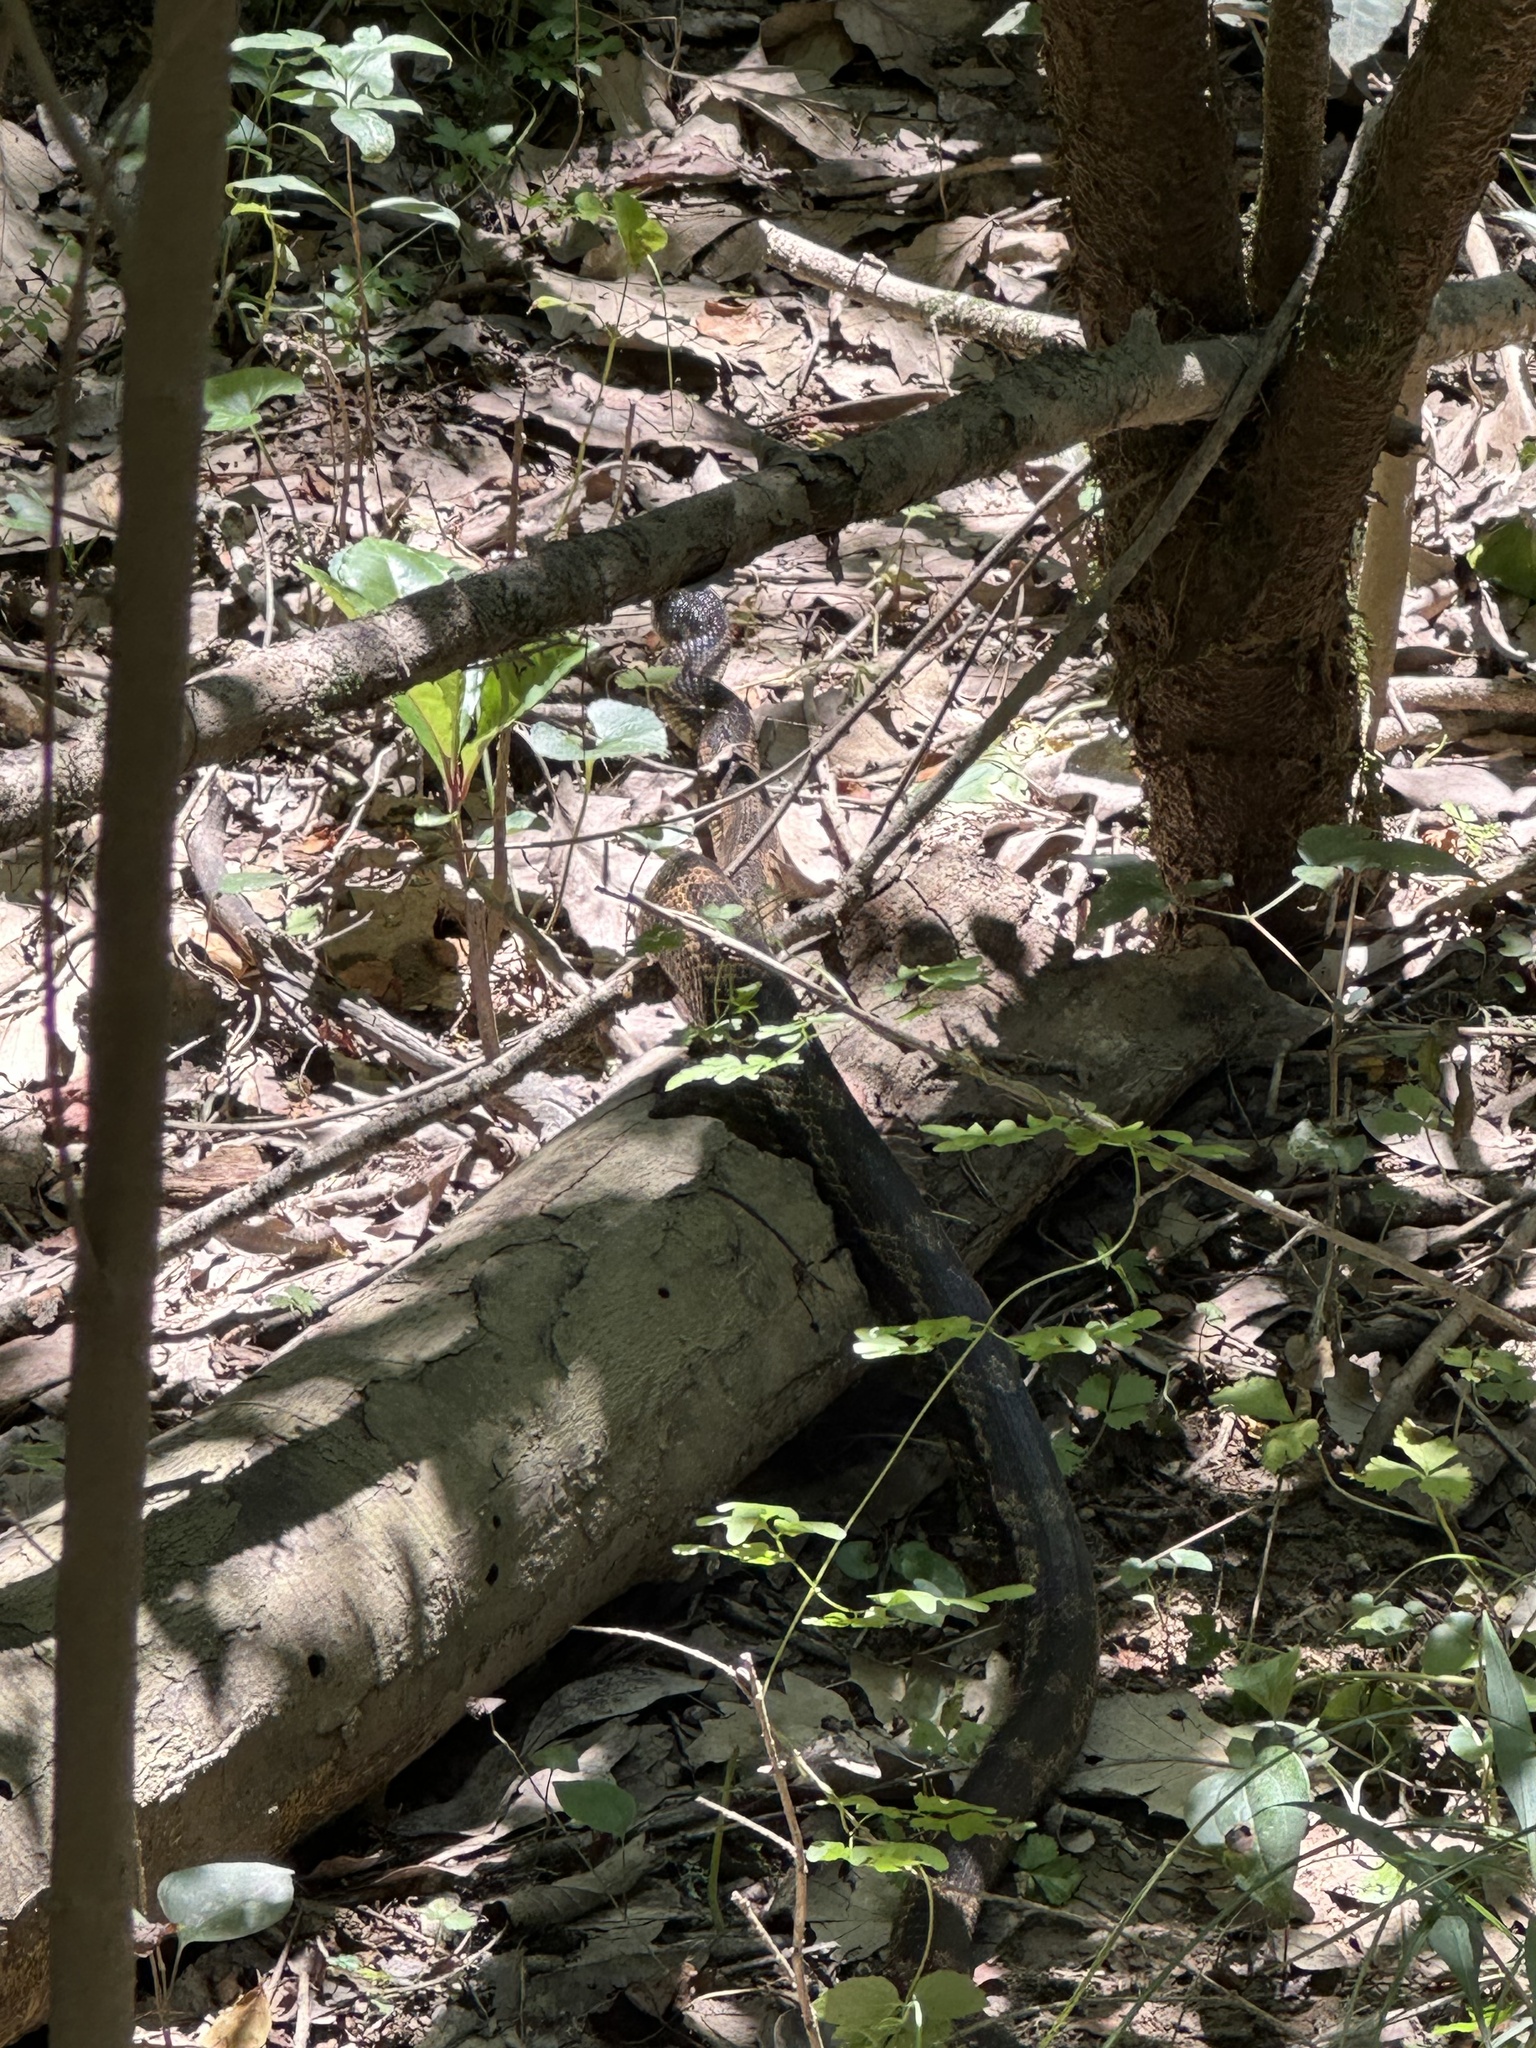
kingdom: Animalia
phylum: Chordata
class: Squamata
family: Colubridae
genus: Pantherophis
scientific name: Pantherophis spiloides
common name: Gray rat snake
